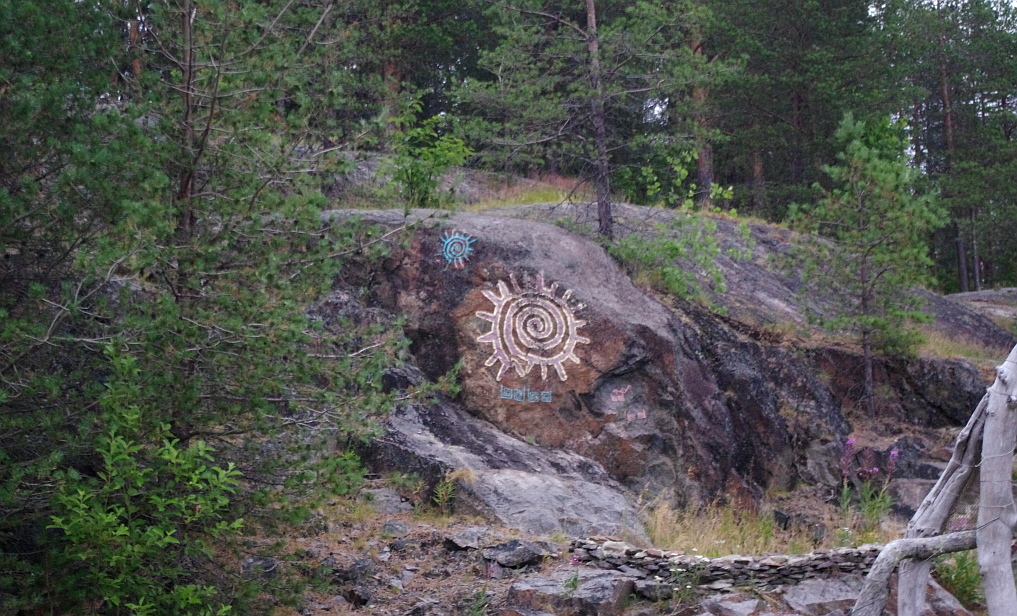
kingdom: Plantae
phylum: Tracheophyta
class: Pinopsida
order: Pinales
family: Pinaceae
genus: Pinus
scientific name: Pinus sylvestris
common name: Scots pine
